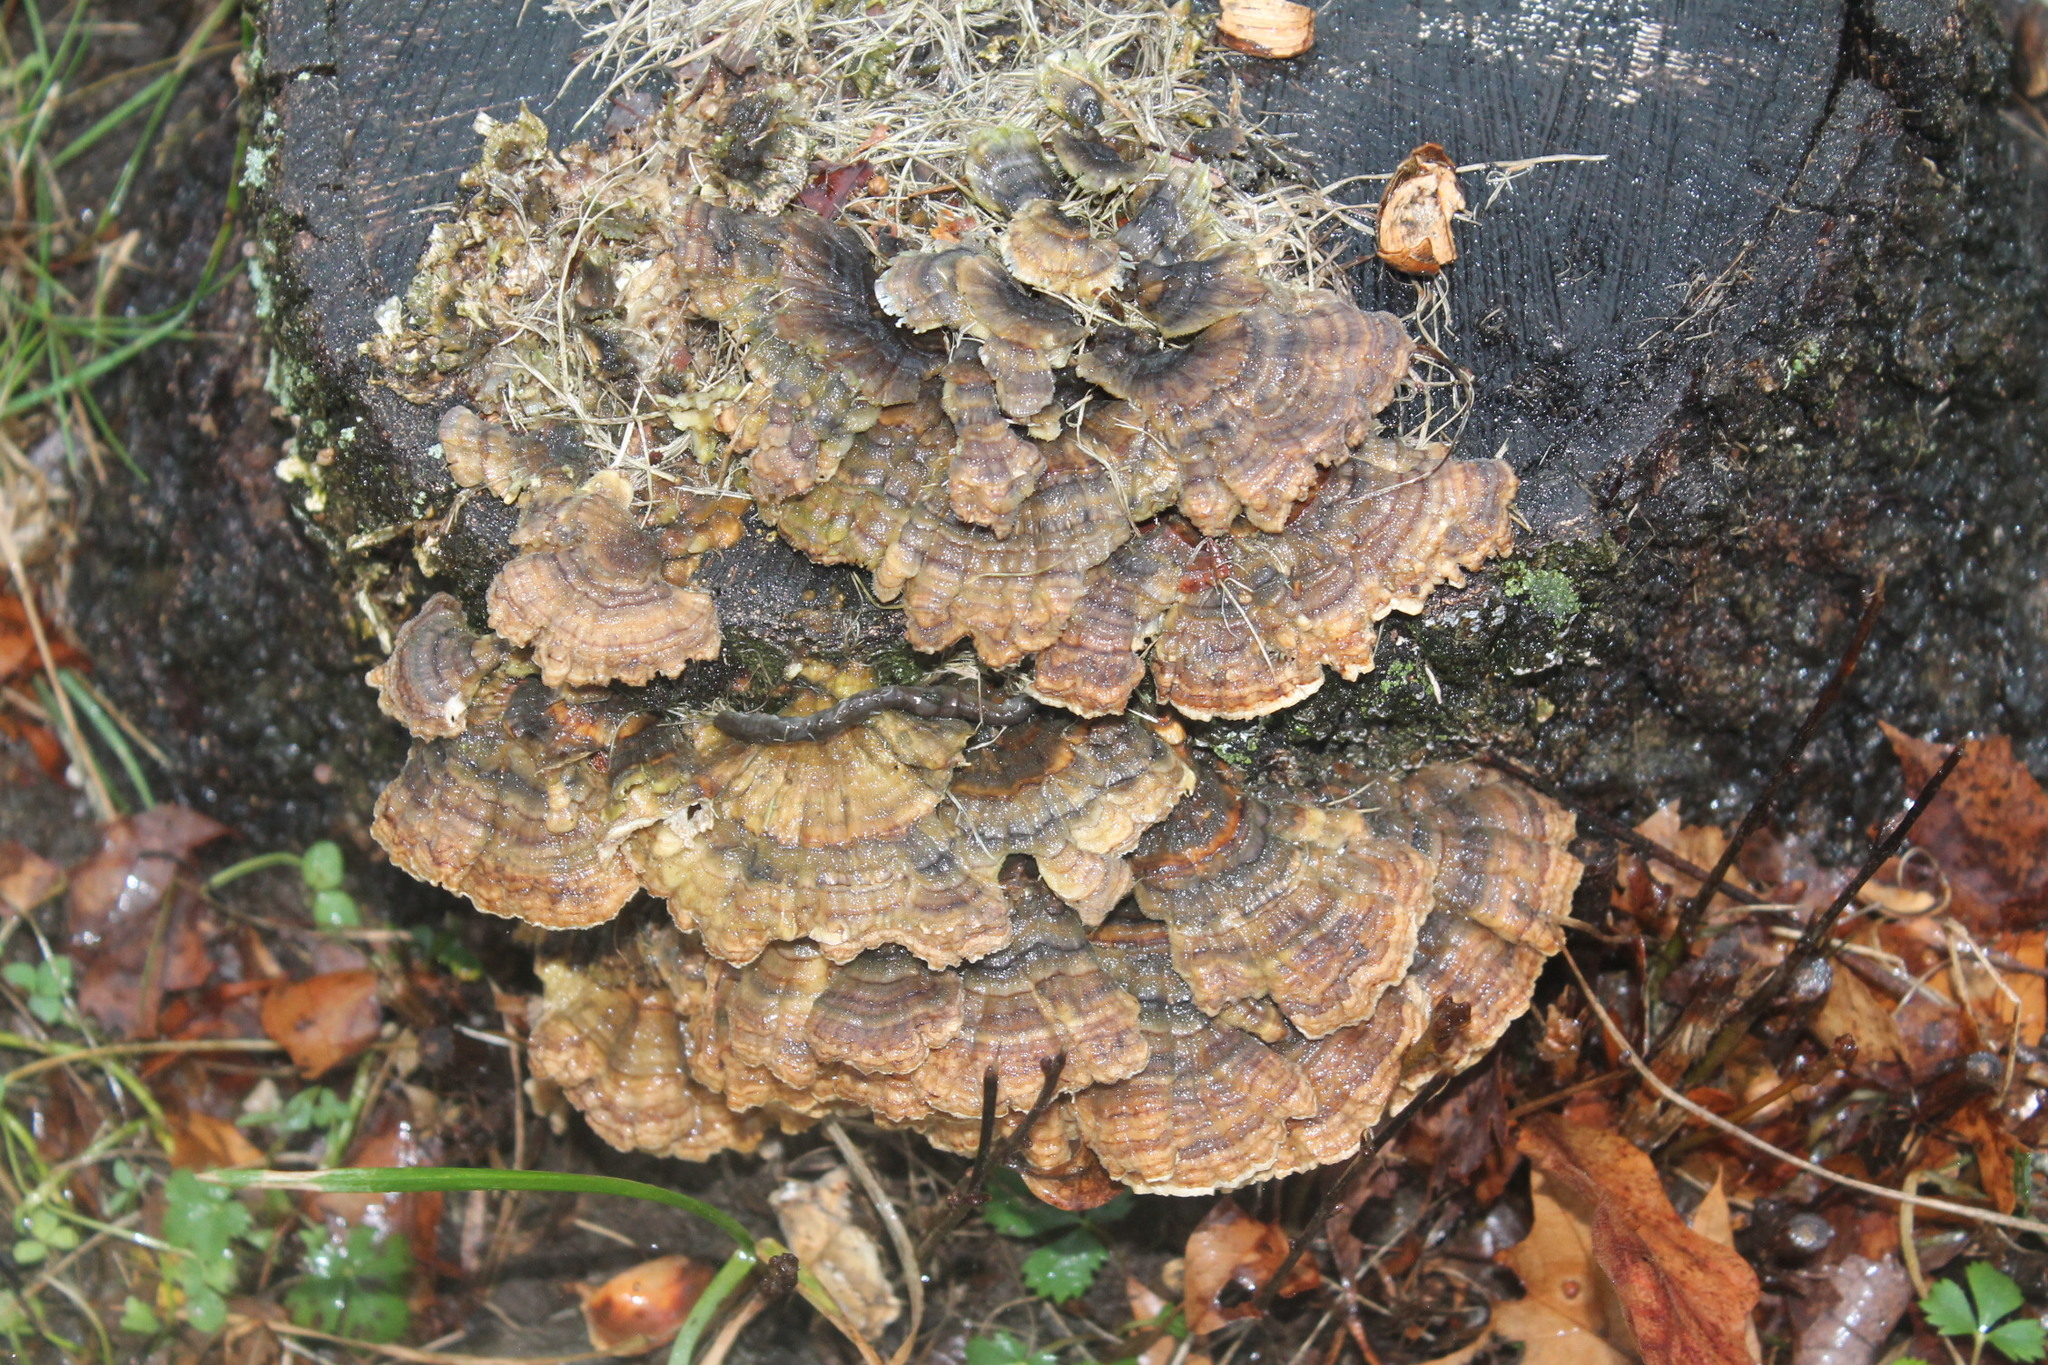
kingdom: Fungi
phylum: Basidiomycota
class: Agaricomycetes
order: Polyporales
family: Polyporaceae
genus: Trametes
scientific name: Trametes versicolor
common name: Turkeytail
